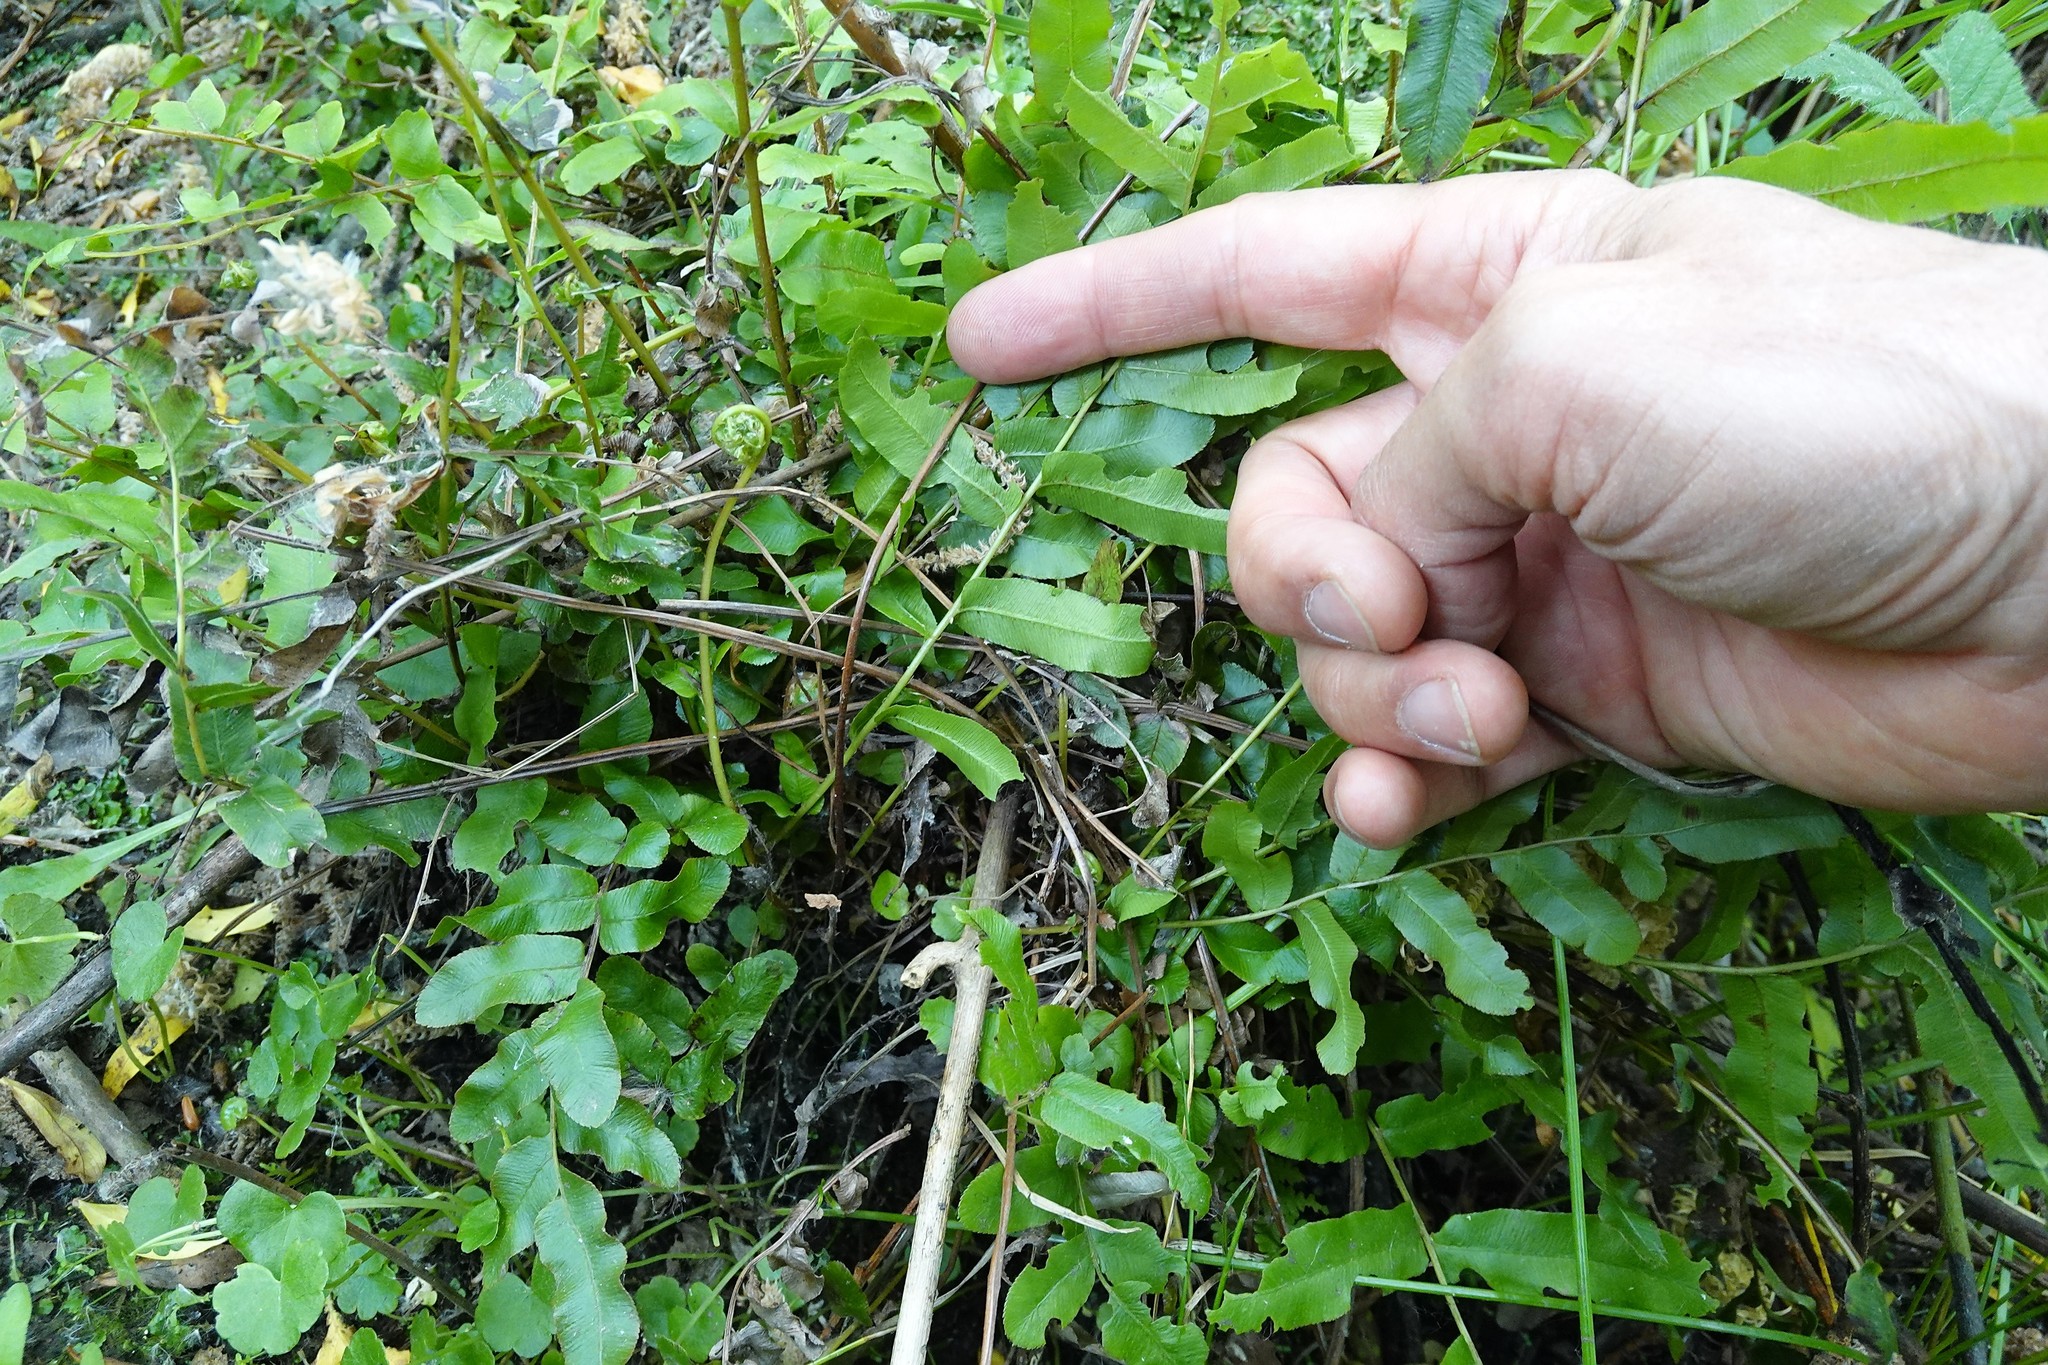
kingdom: Plantae
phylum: Tracheophyta
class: Polypodiopsida
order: Polypodiales
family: Blechnaceae
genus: Parablechnum
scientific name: Parablechnum minus
